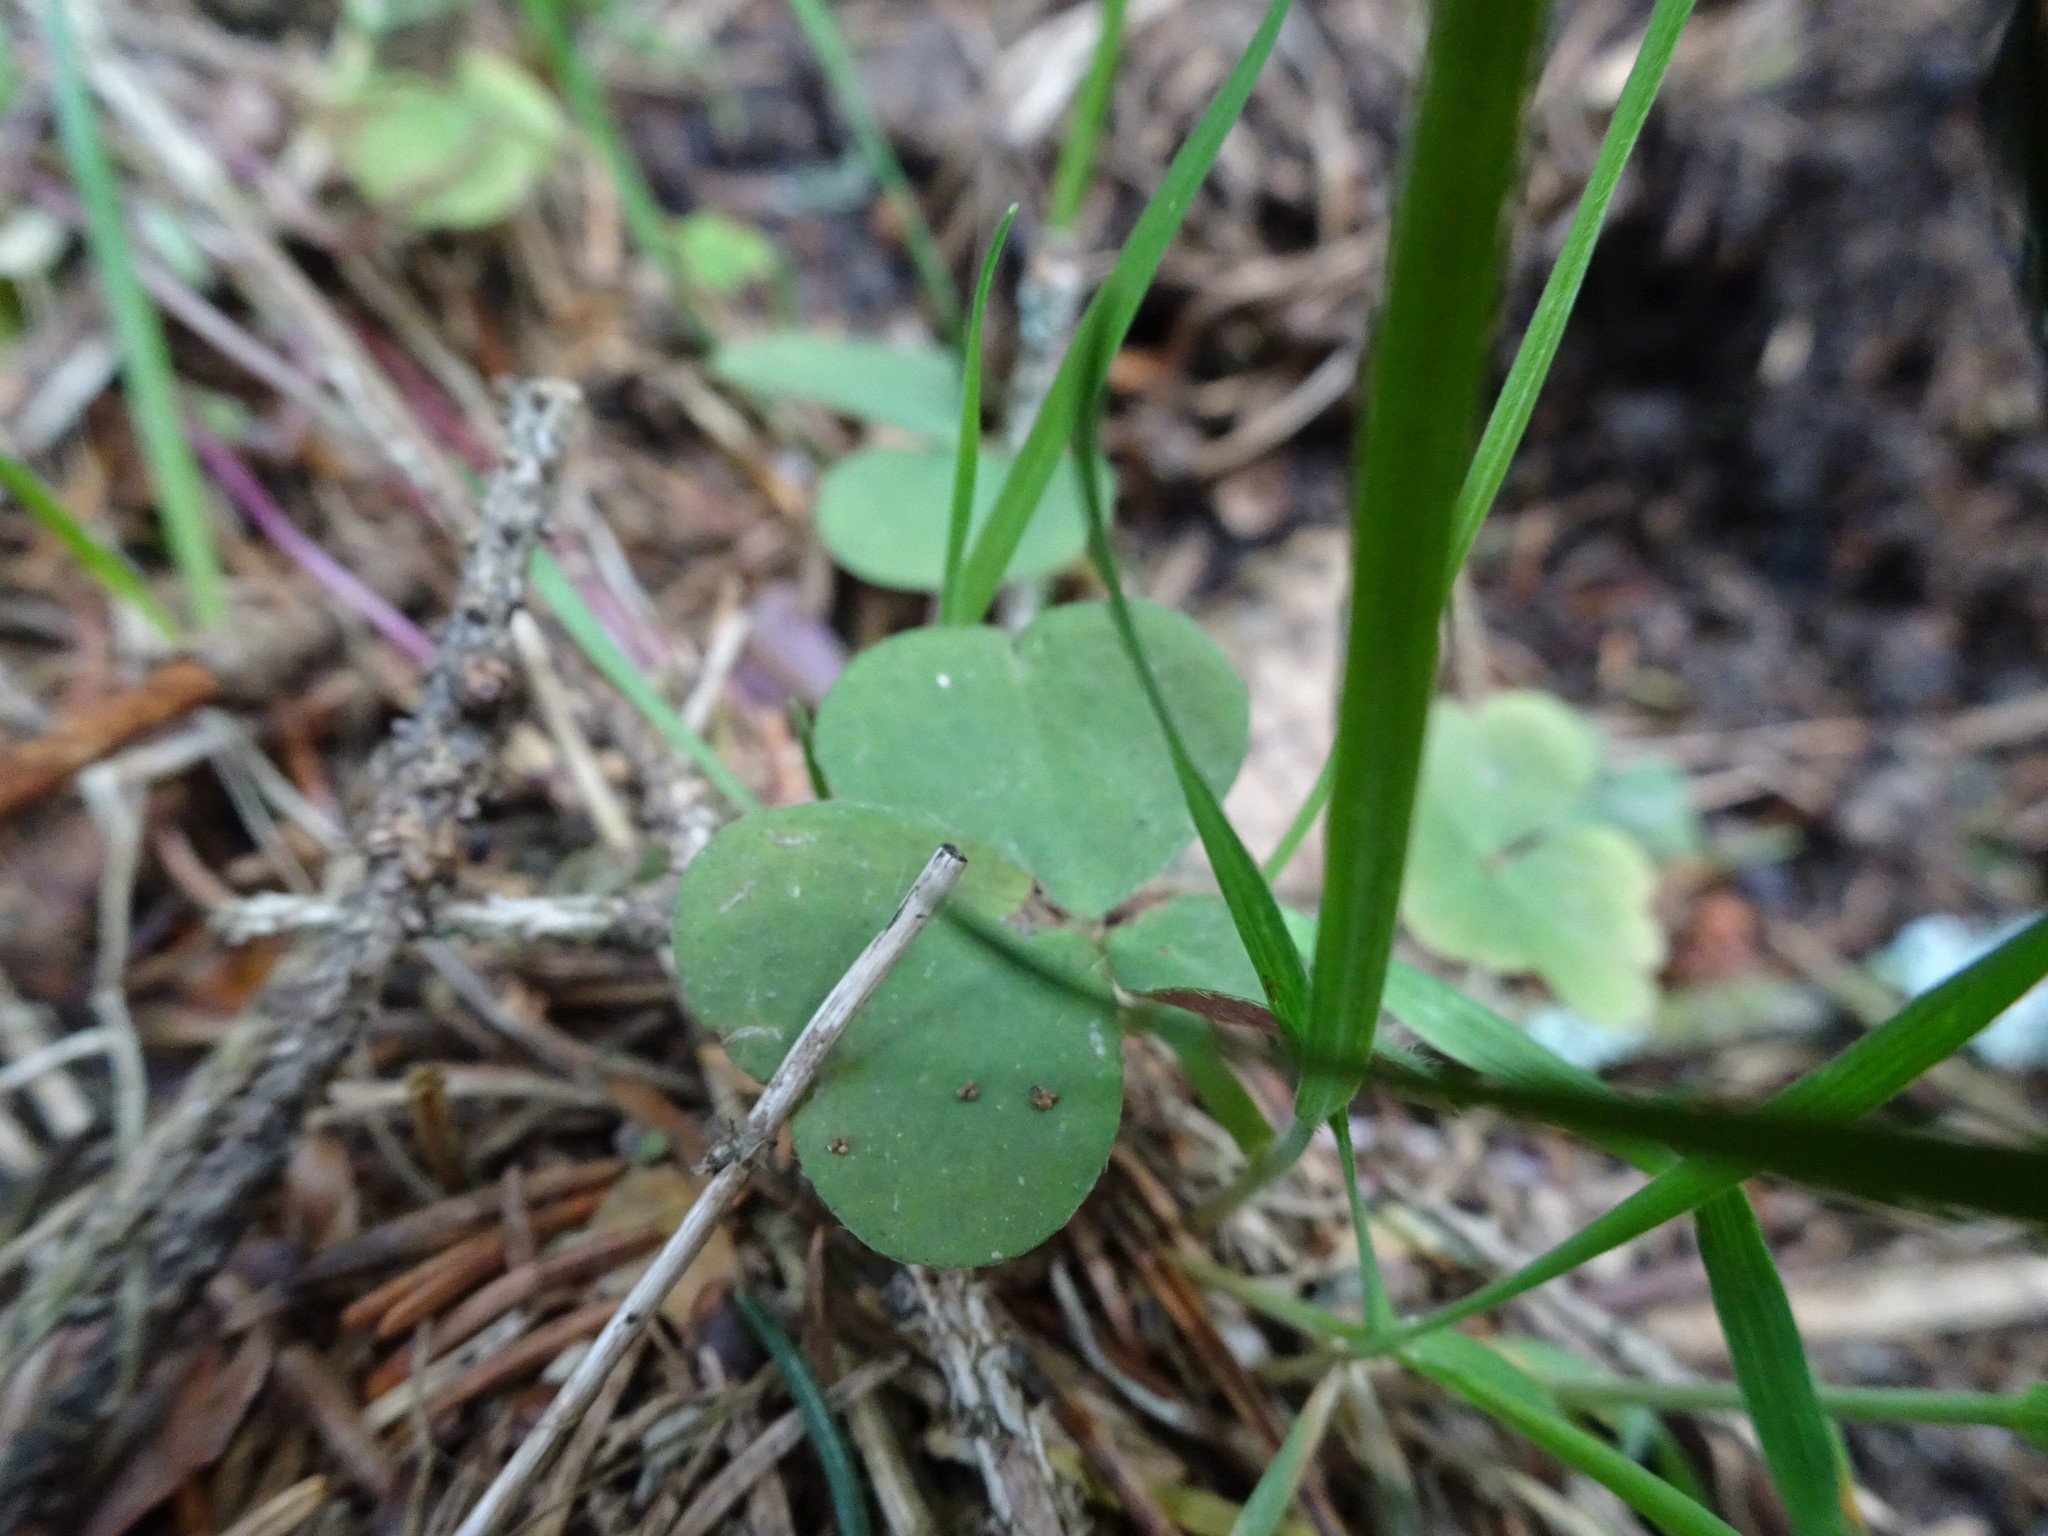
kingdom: Plantae
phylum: Tracheophyta
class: Magnoliopsida
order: Oxalidales
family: Oxalidaceae
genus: Oxalis
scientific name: Oxalis acetosella
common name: Wood-sorrel
